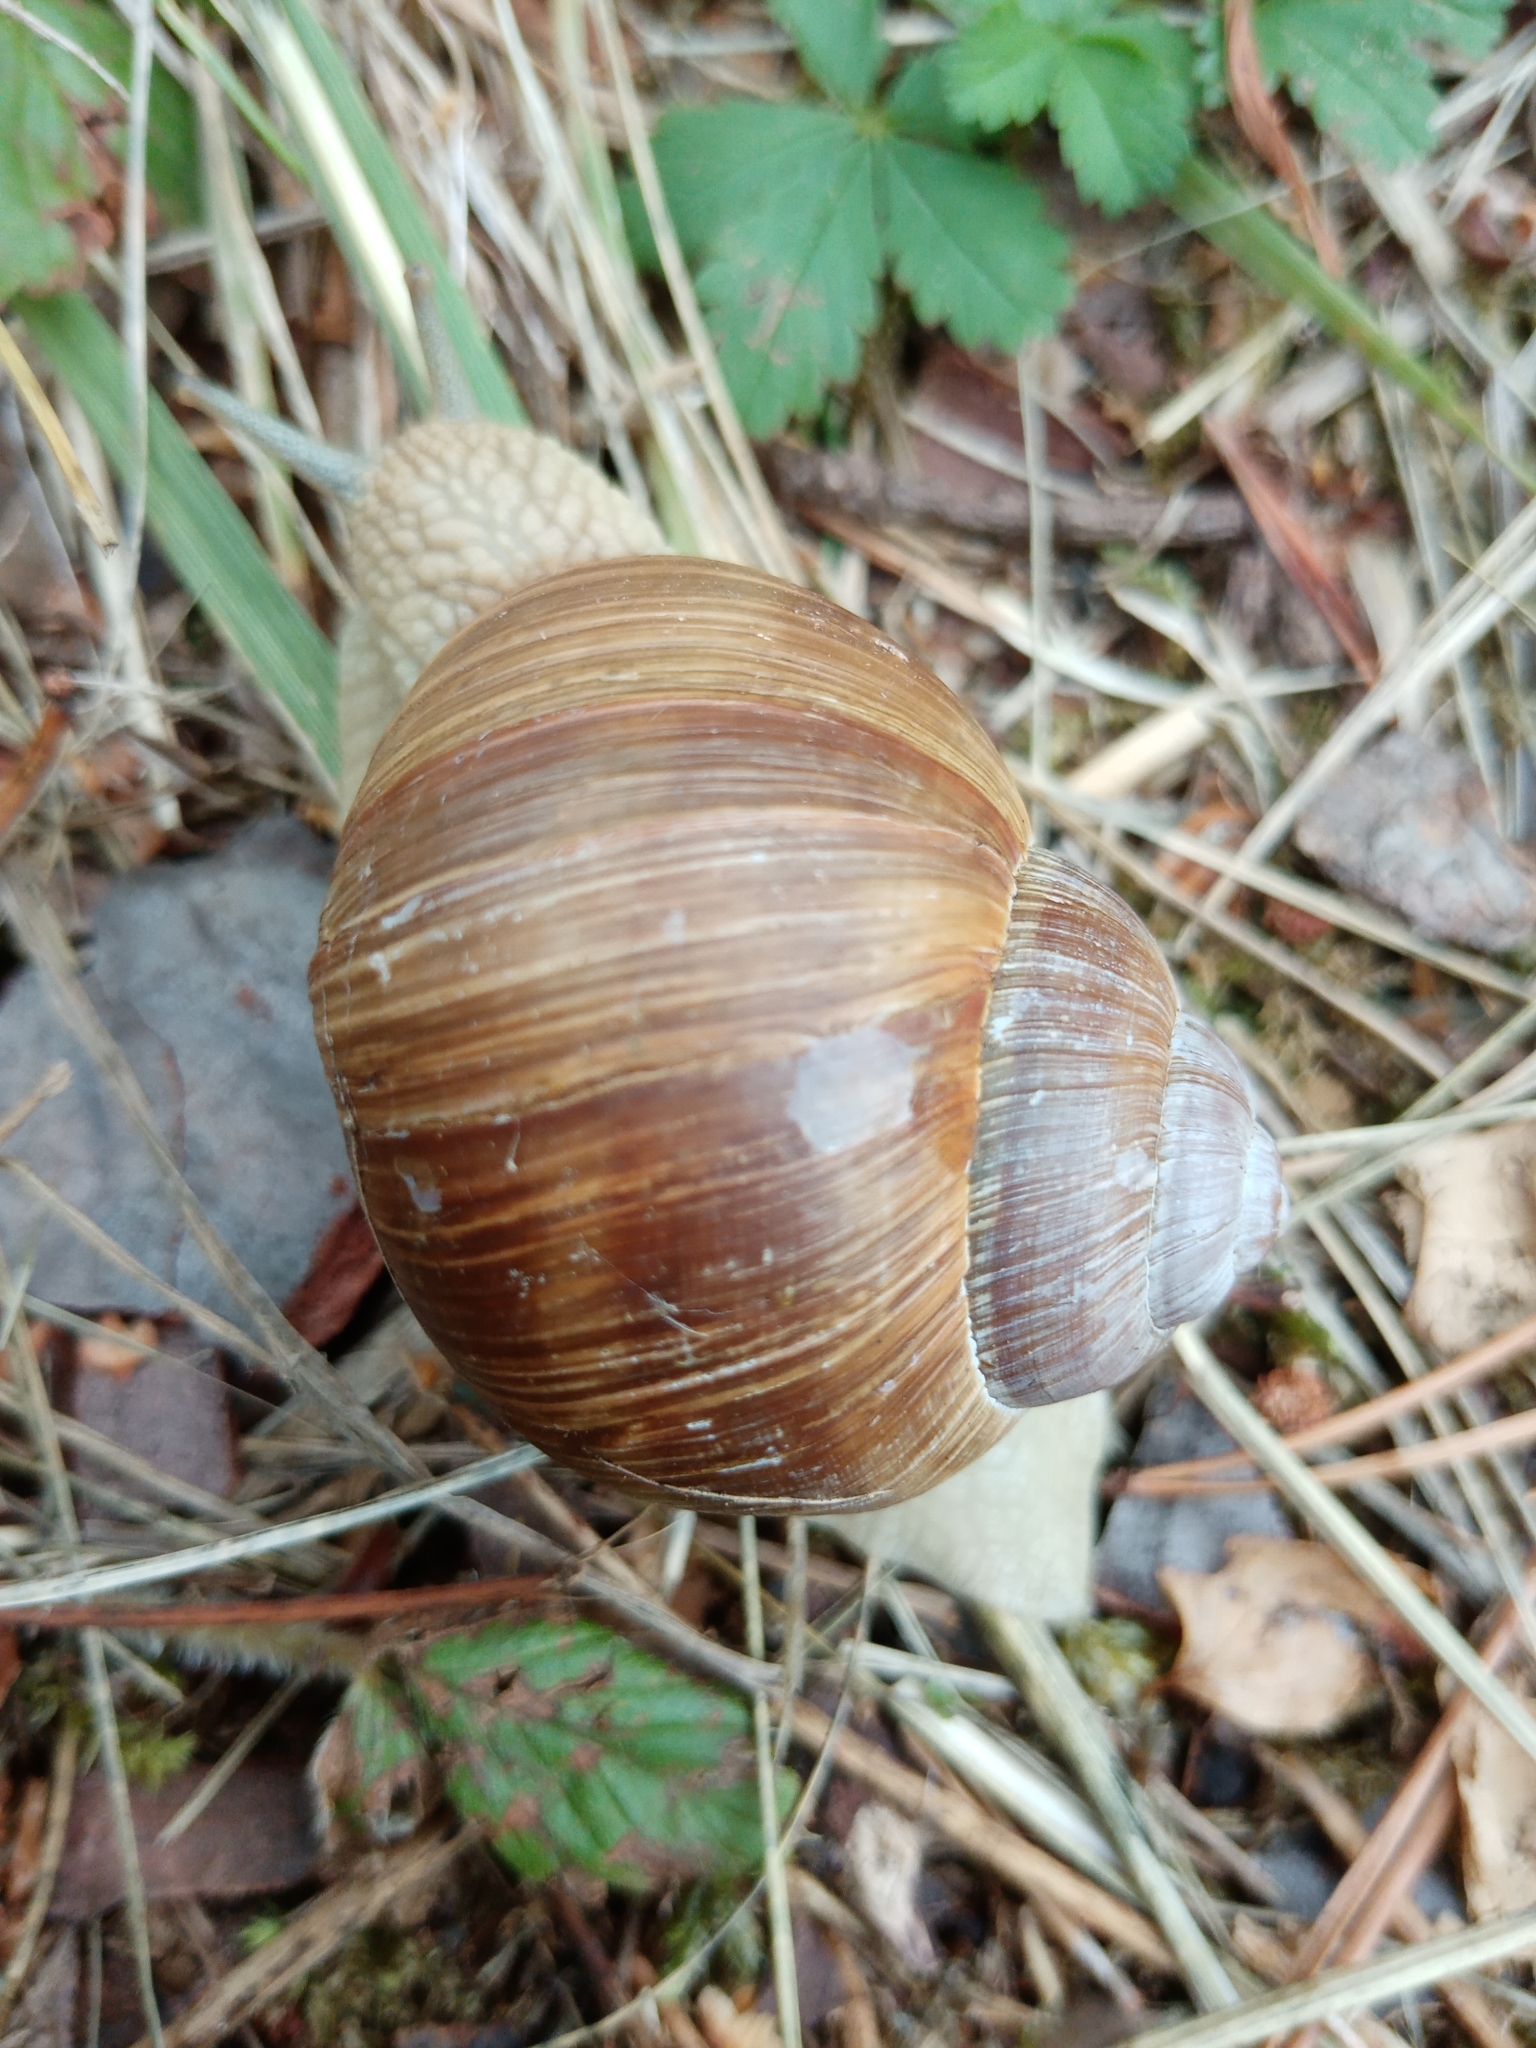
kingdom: Animalia
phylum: Mollusca
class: Gastropoda
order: Stylommatophora
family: Helicidae
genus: Helix
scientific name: Helix pomatia
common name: Roman snail
